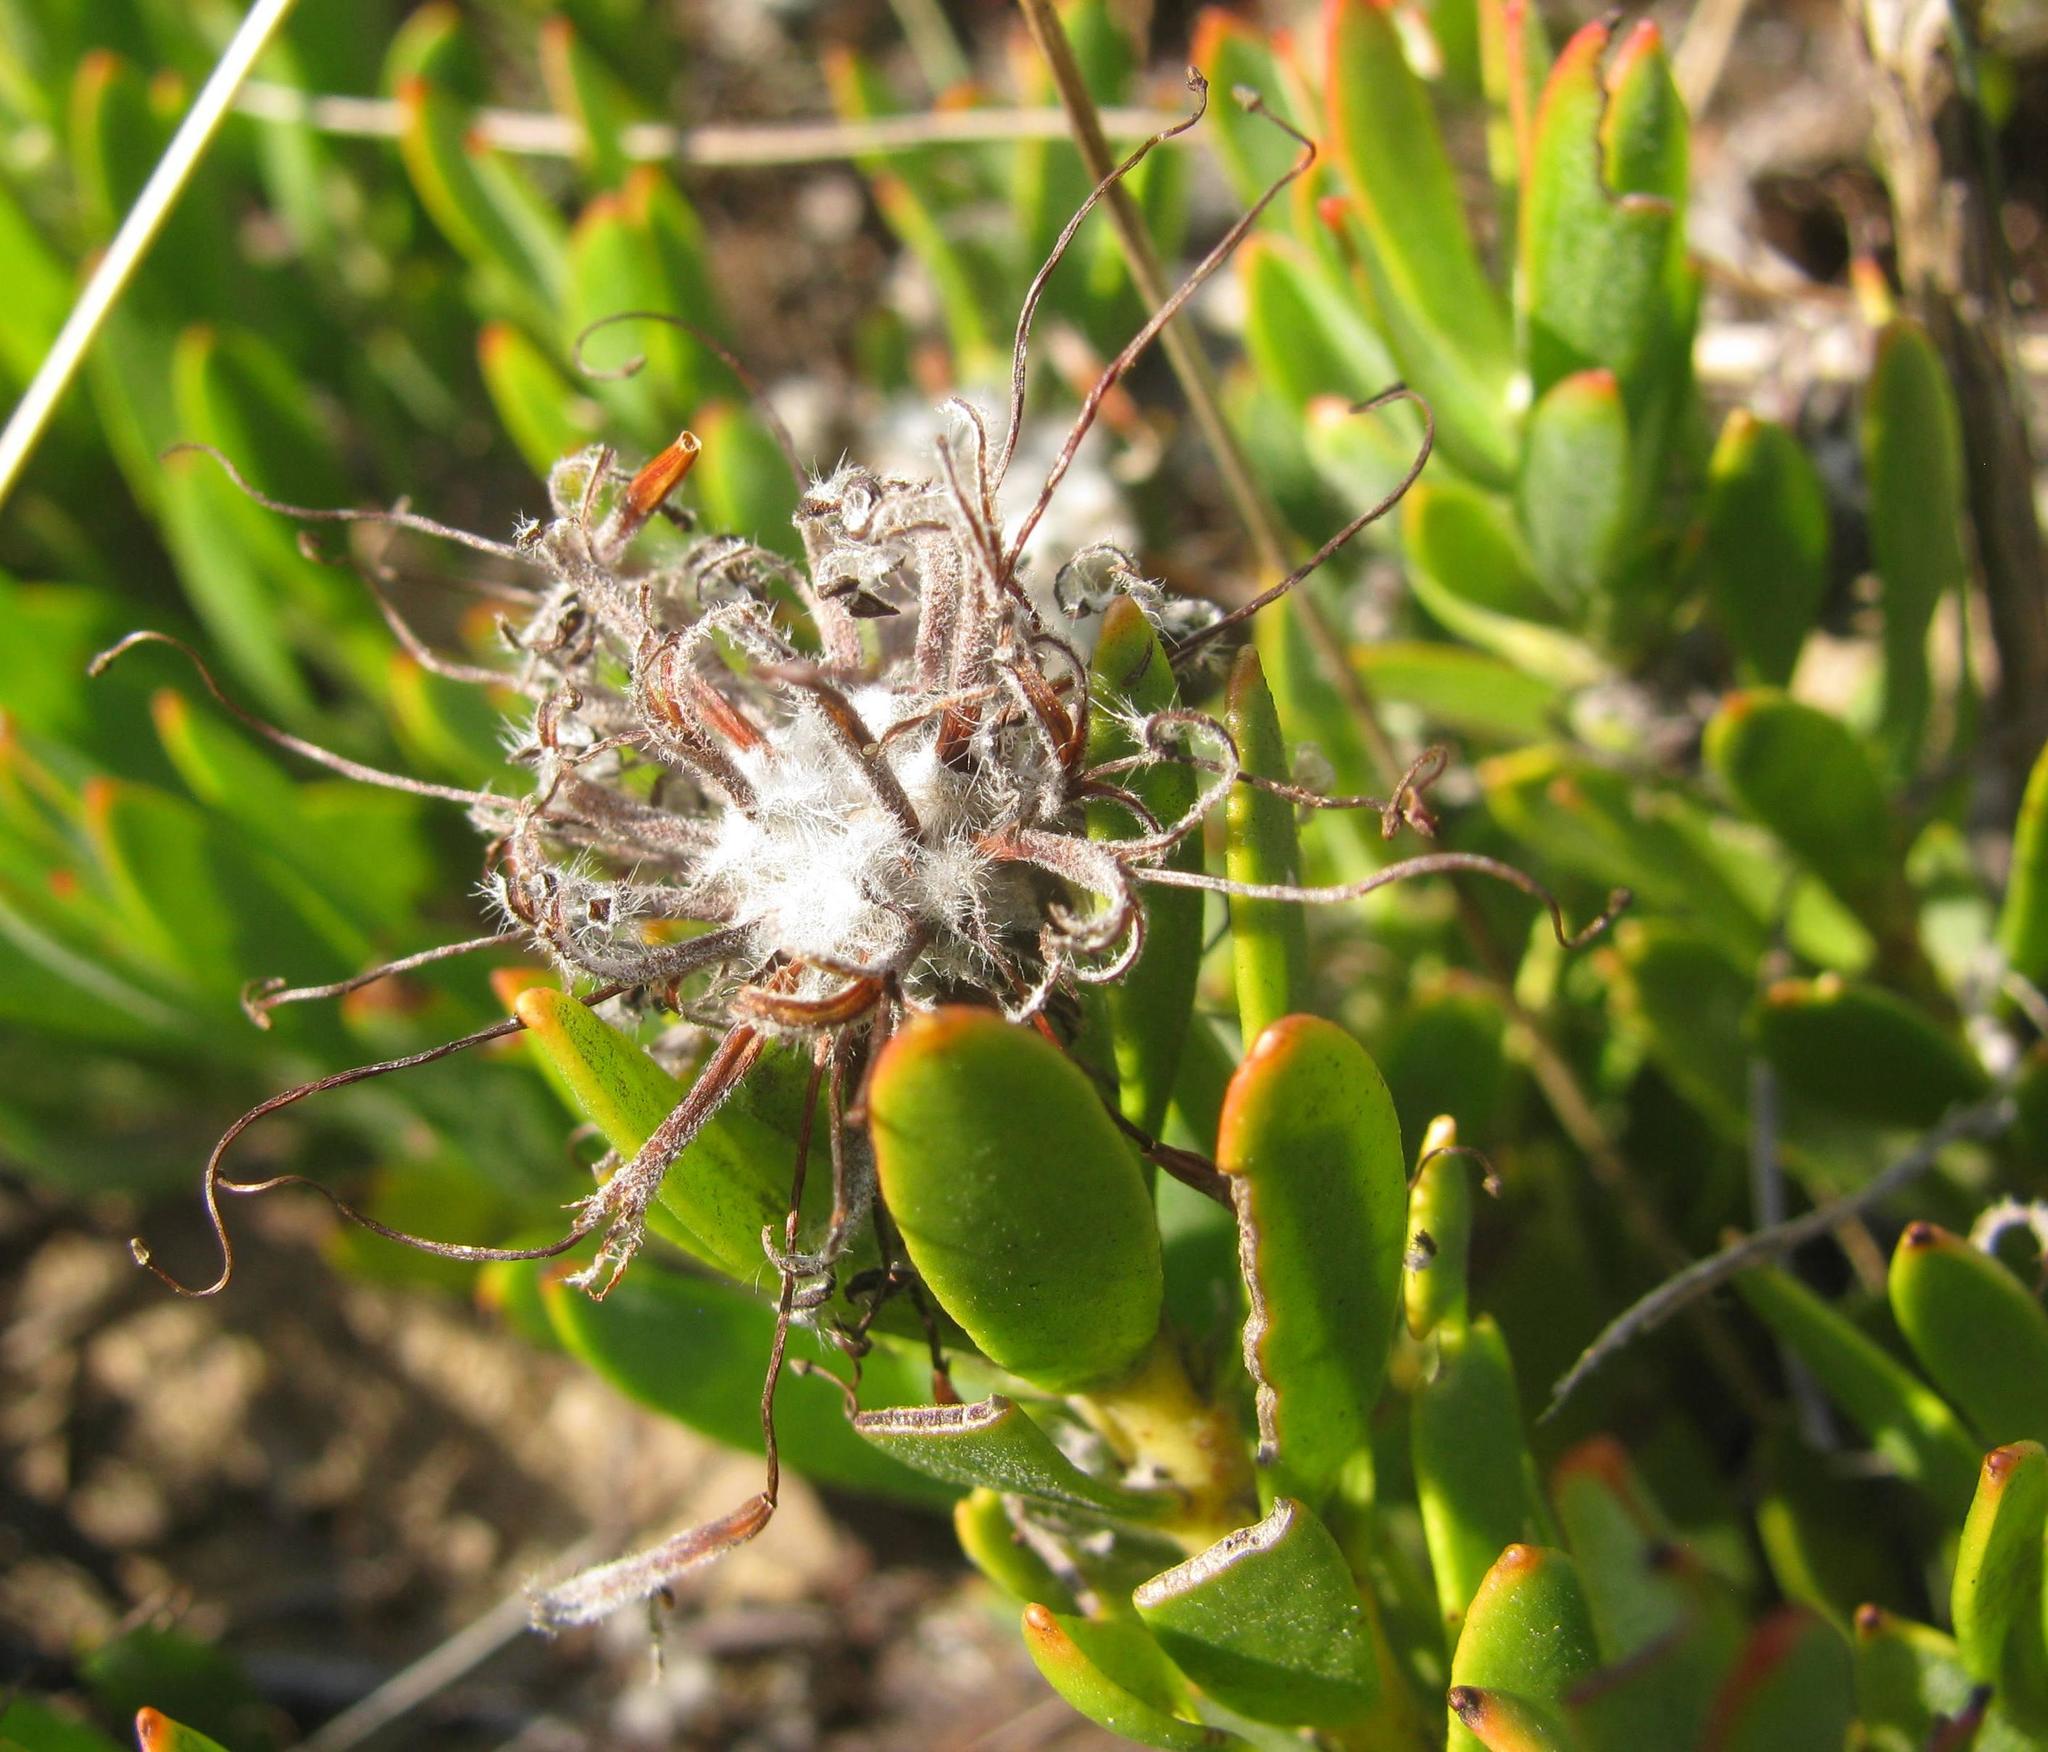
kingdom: Plantae
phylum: Tracheophyta
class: Magnoliopsida
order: Proteales
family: Proteaceae
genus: Leucospermum
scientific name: Leucospermum calligerum
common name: Arid pincushion
